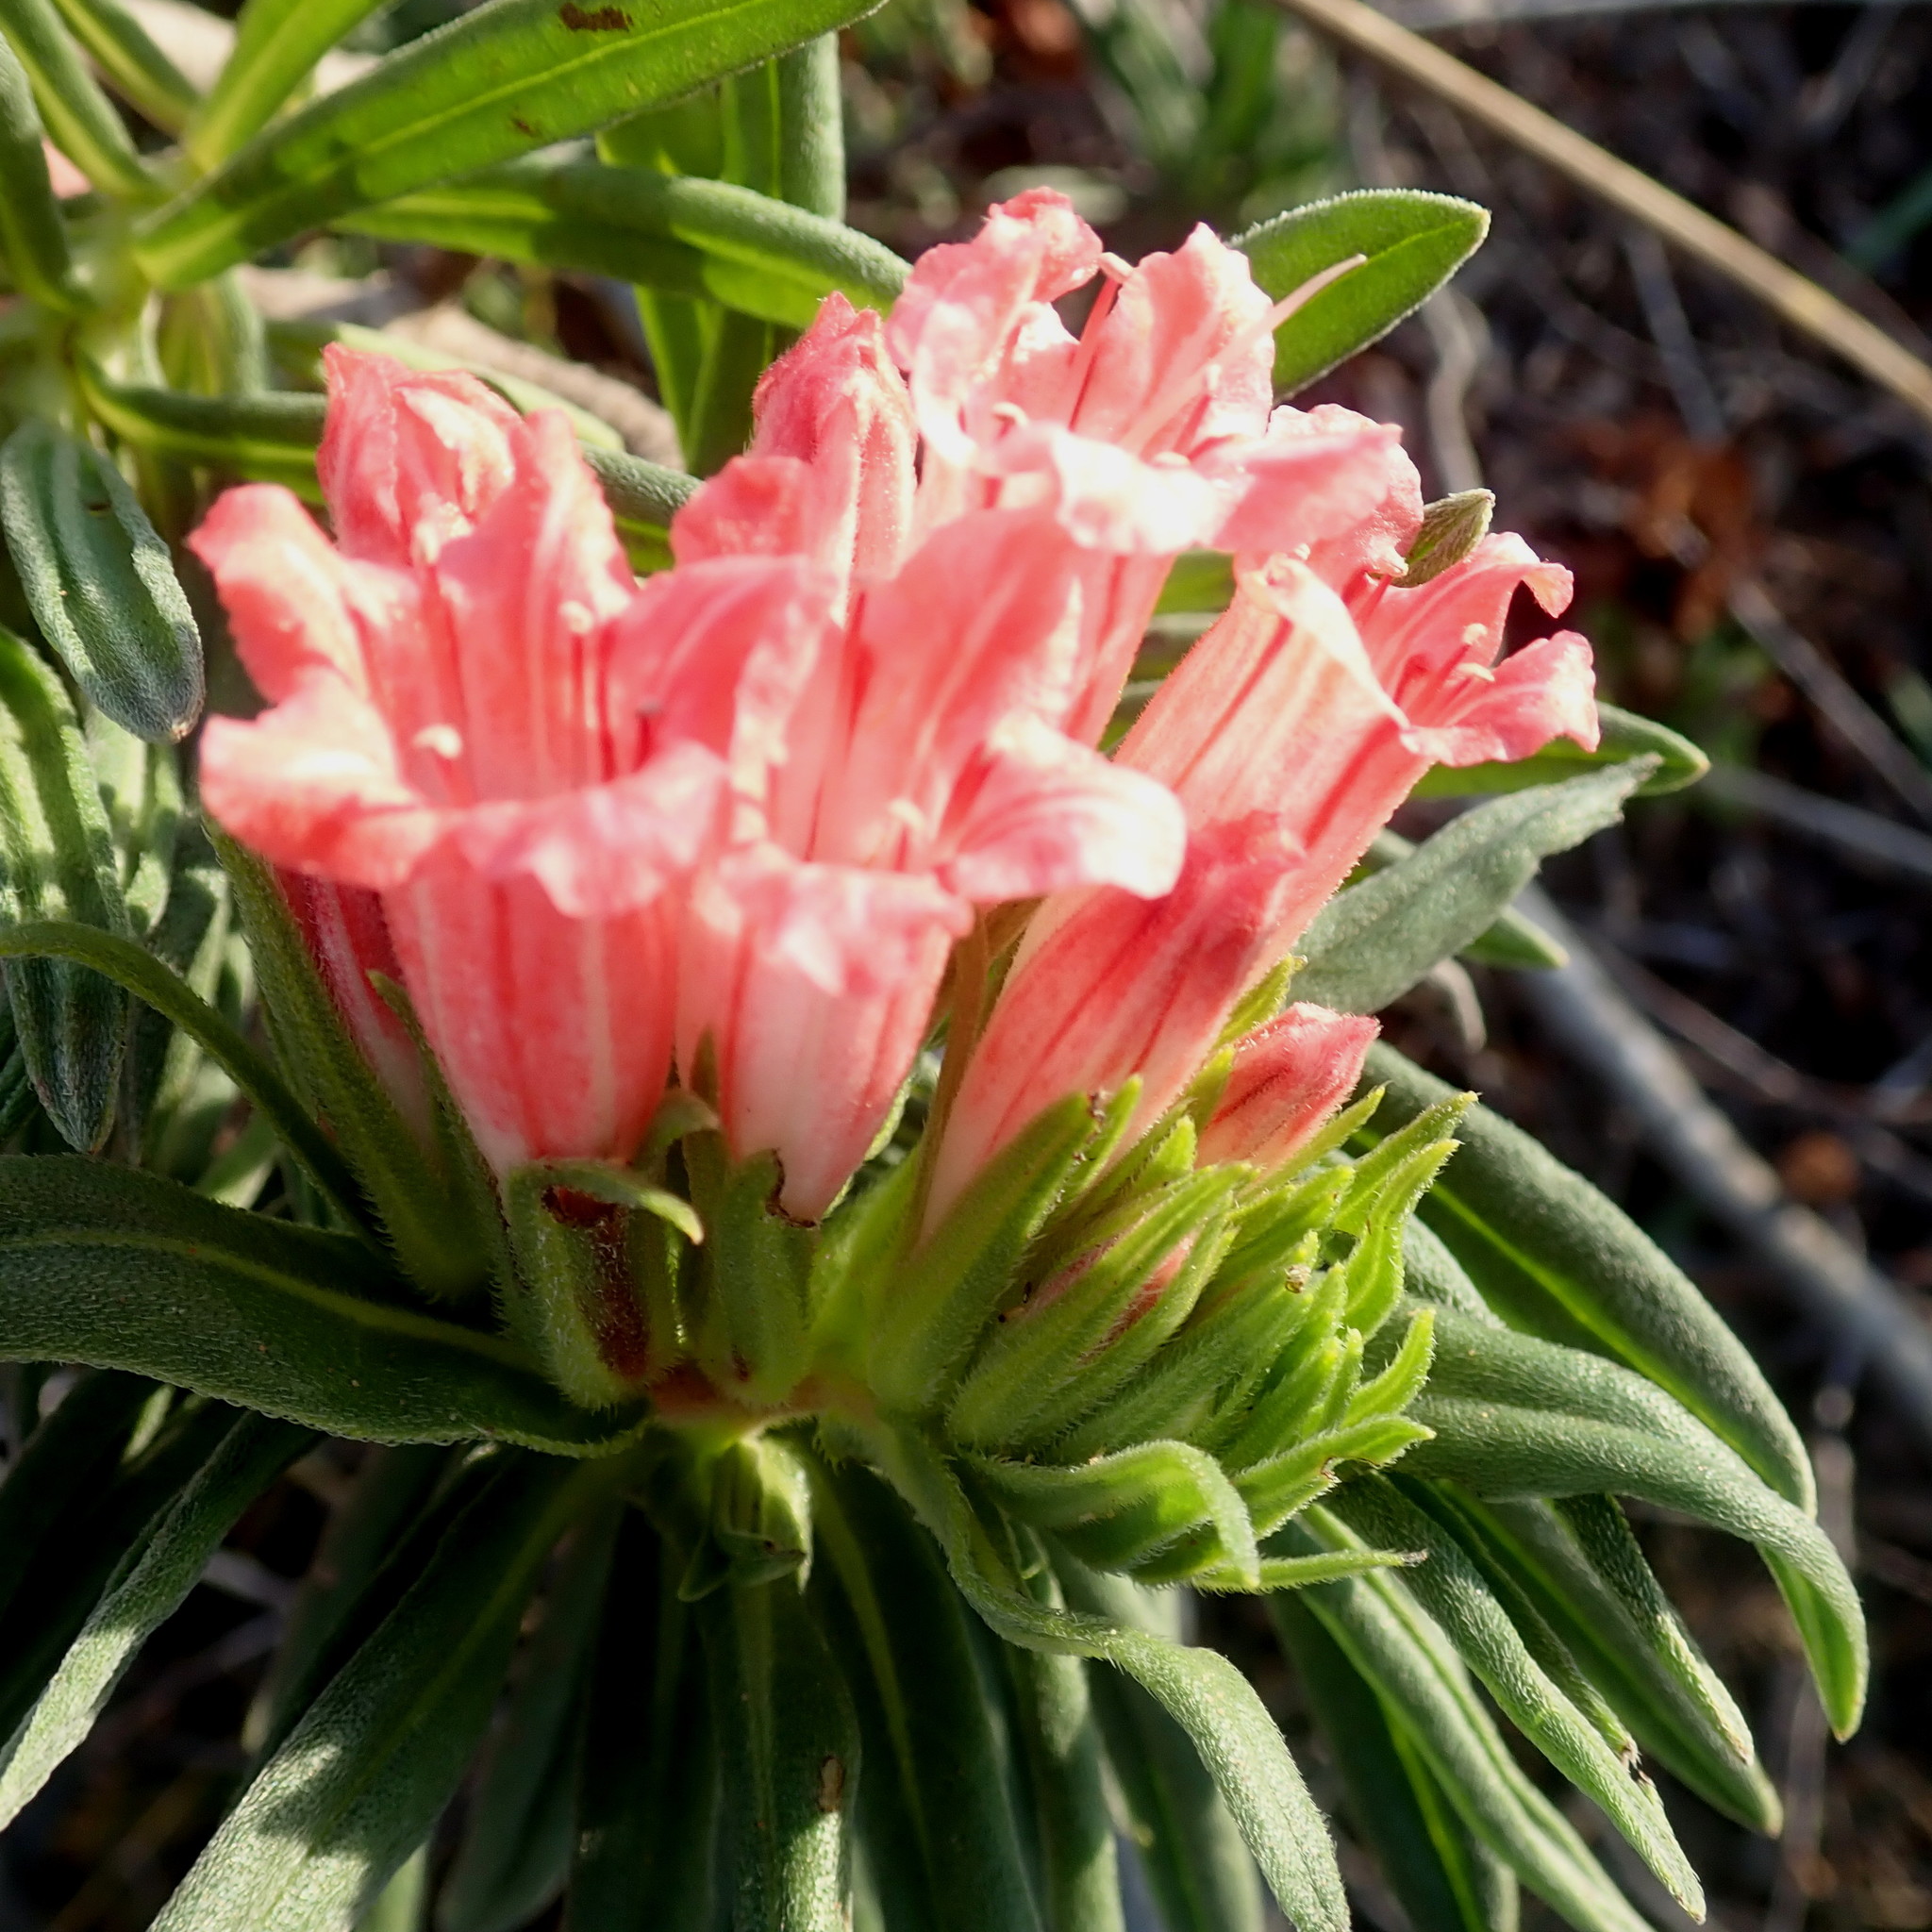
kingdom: Plantae
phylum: Tracheophyta
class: Magnoliopsida
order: Boraginales
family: Boraginaceae
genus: Lobostemon
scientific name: Lobostemon belliformis
